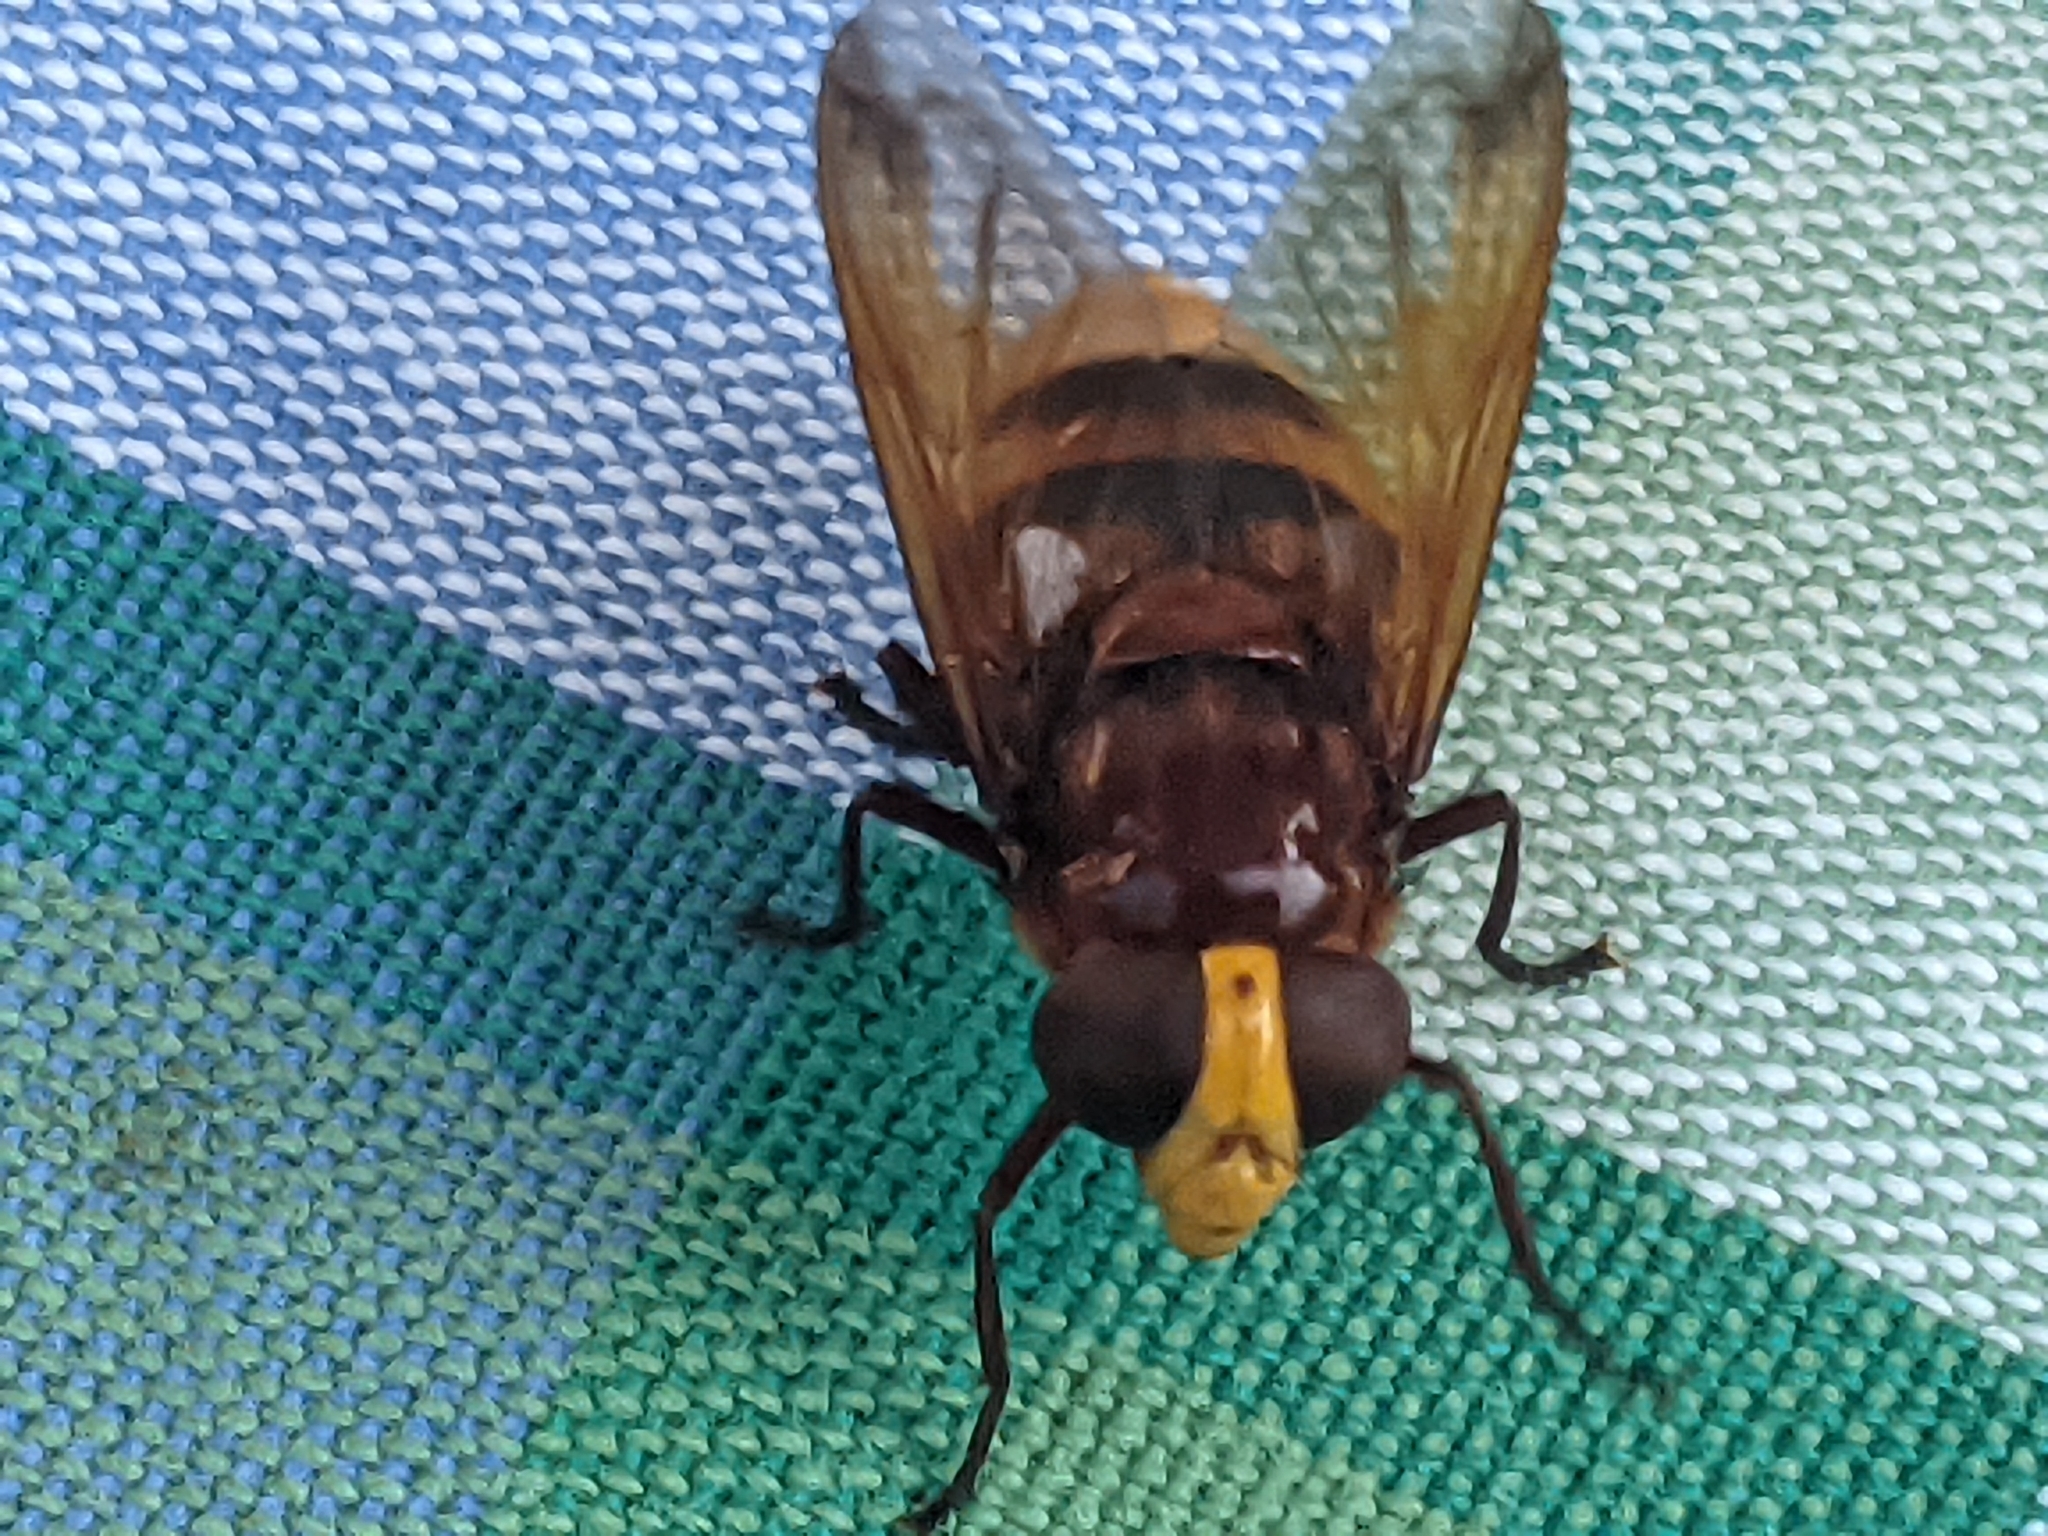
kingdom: Animalia
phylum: Arthropoda
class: Insecta
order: Diptera
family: Syrphidae
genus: Volucella
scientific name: Volucella zonaria
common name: Hornet hoverfly
